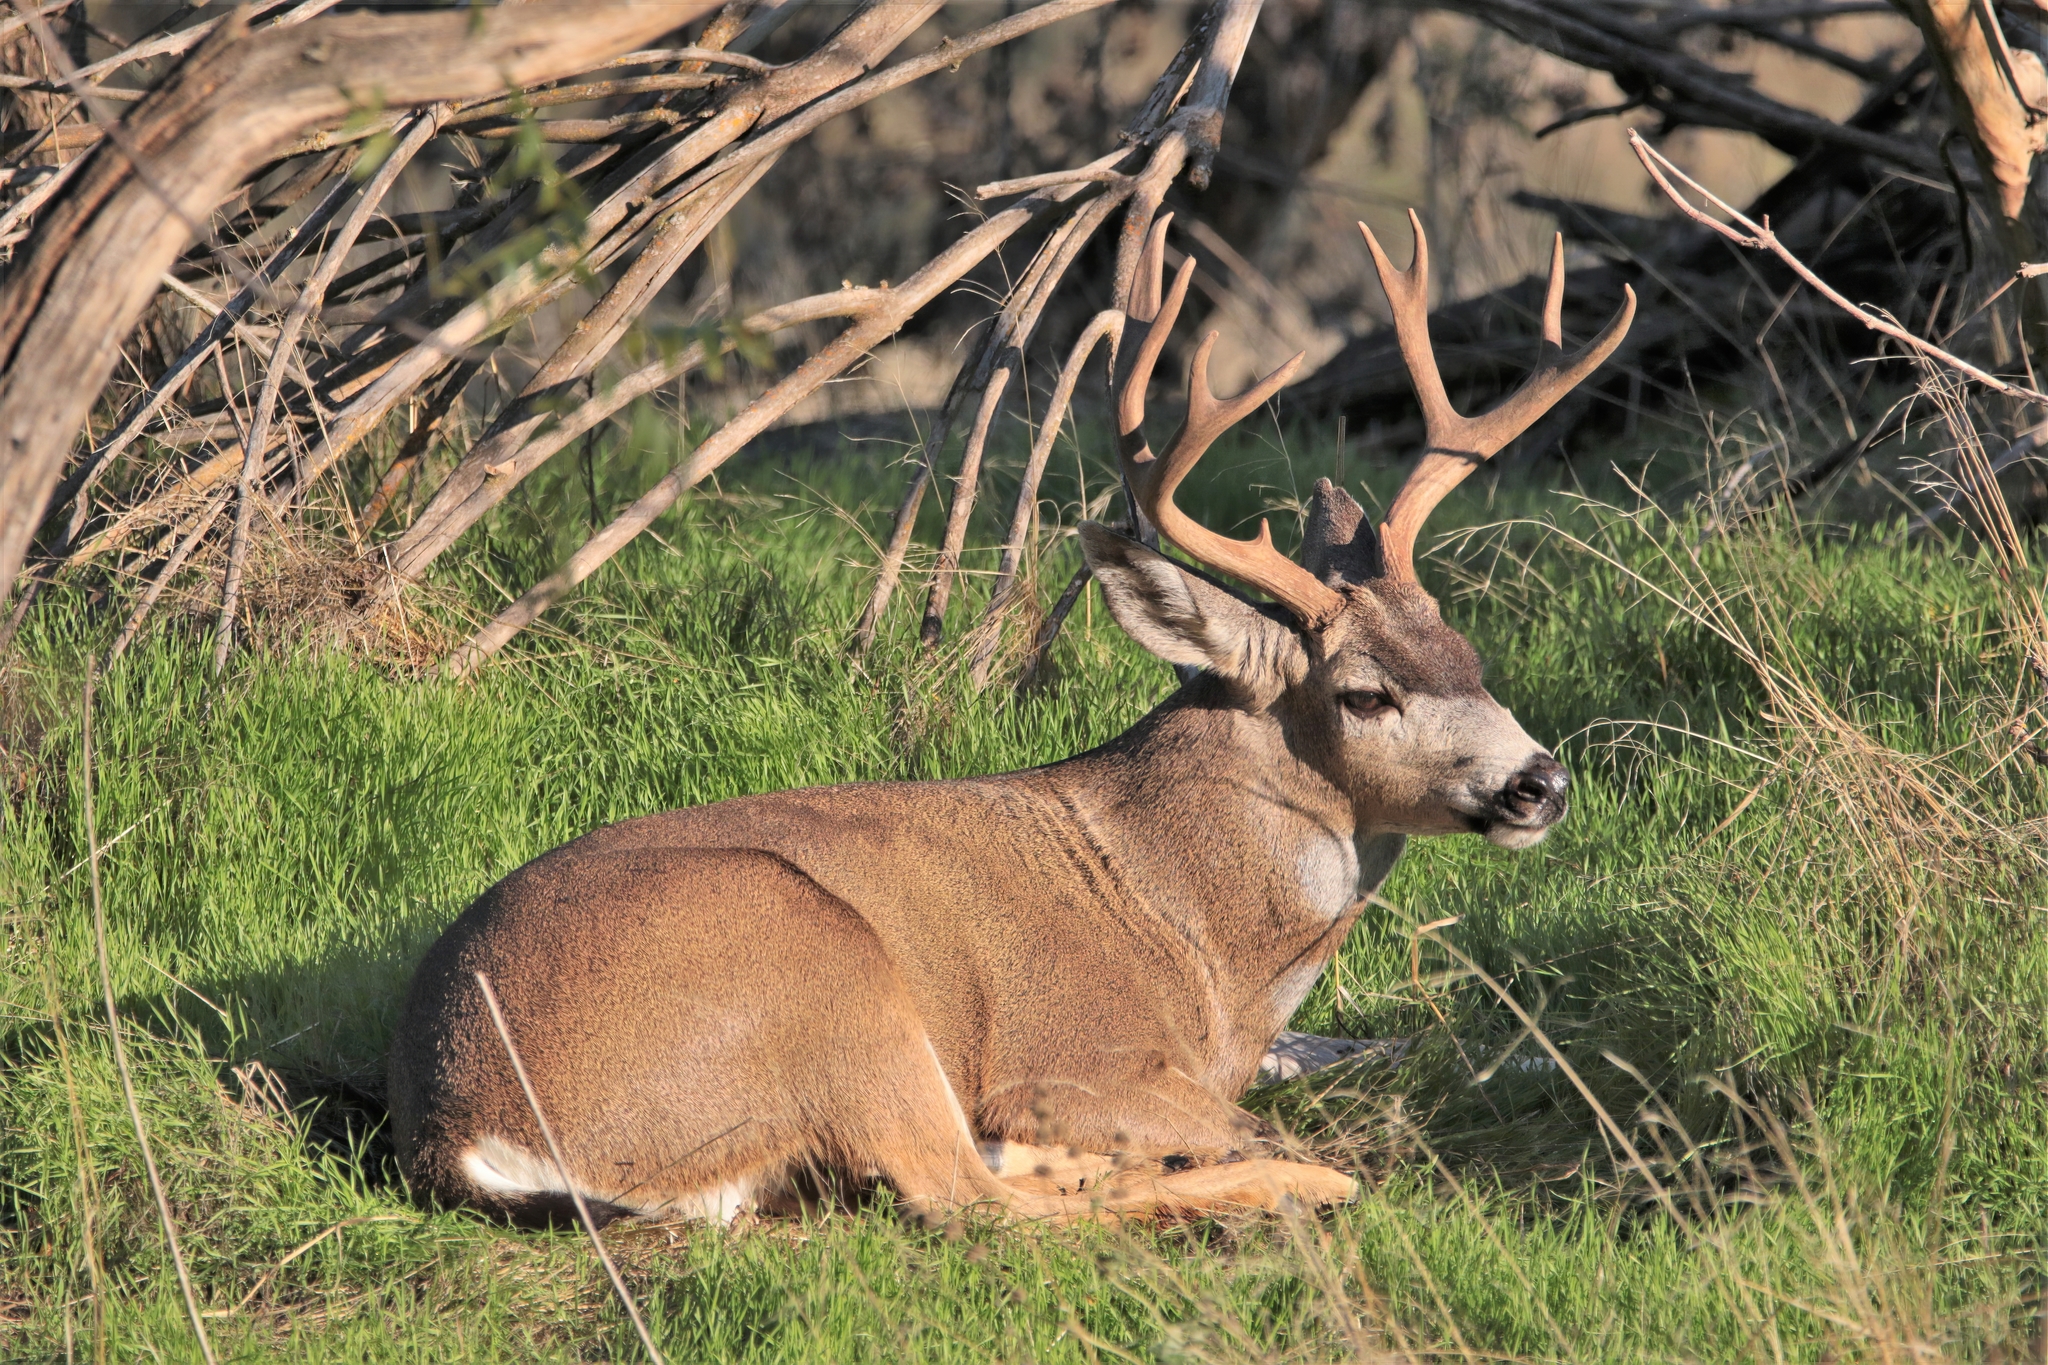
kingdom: Animalia
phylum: Chordata
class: Mammalia
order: Artiodactyla
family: Cervidae
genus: Odocoileus
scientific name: Odocoileus hemionus
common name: Mule deer
